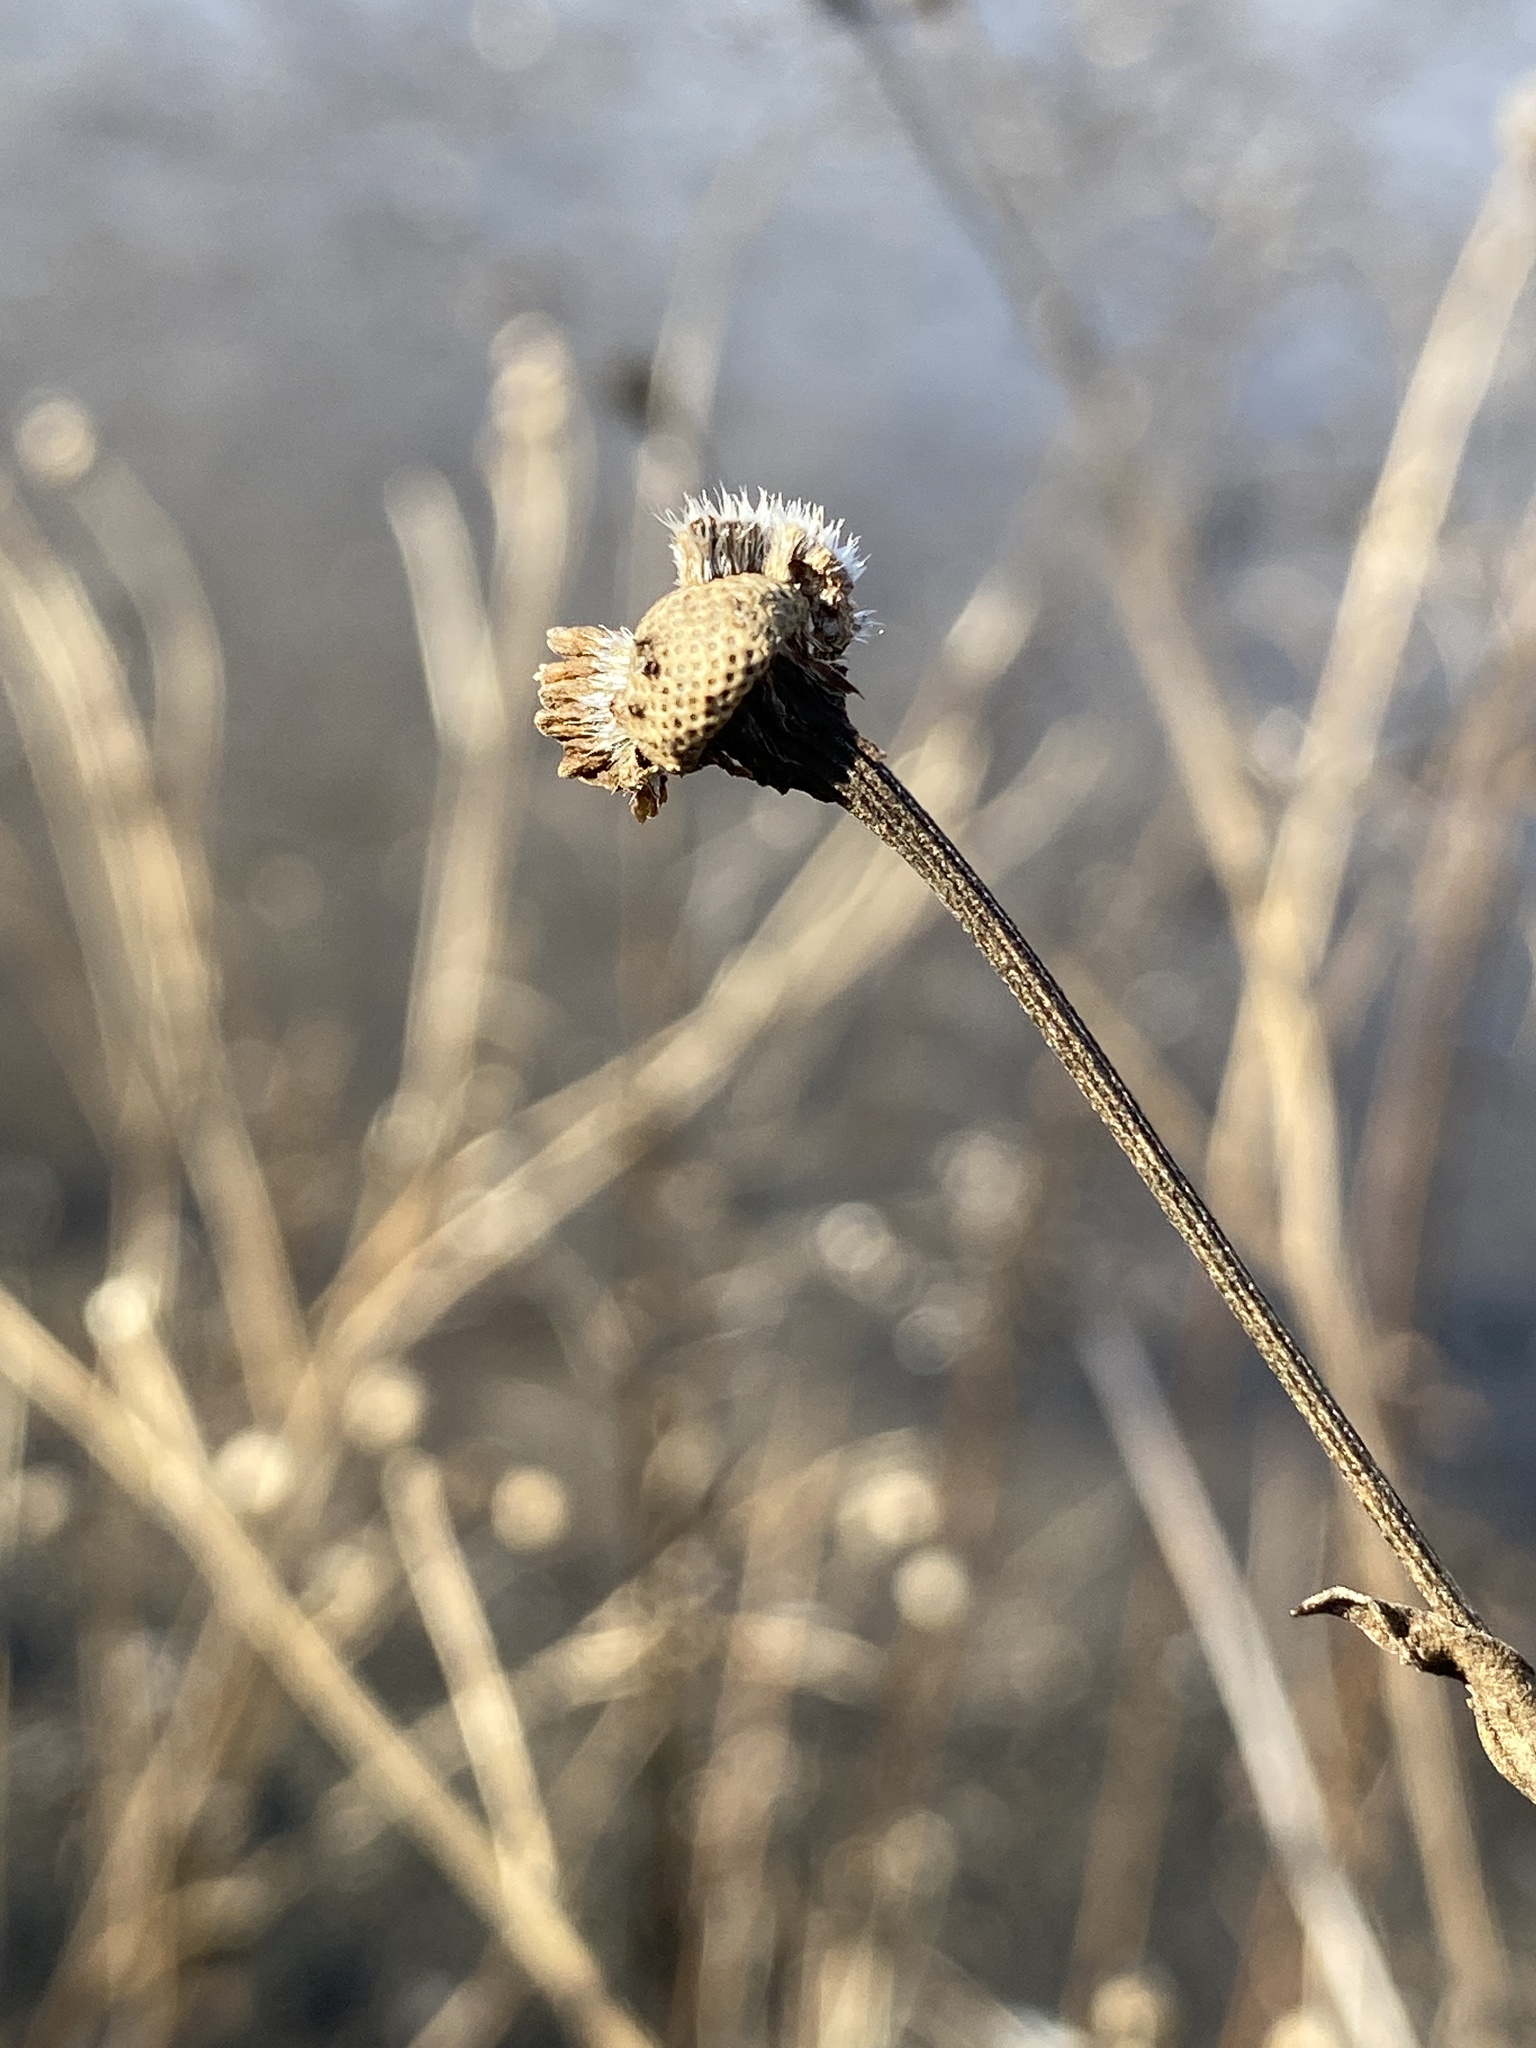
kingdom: Plantae
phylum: Tracheophyta
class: Magnoliopsida
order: Asterales
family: Asteraceae
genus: Helenium
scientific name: Helenium autumnale
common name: Sneezeweed
